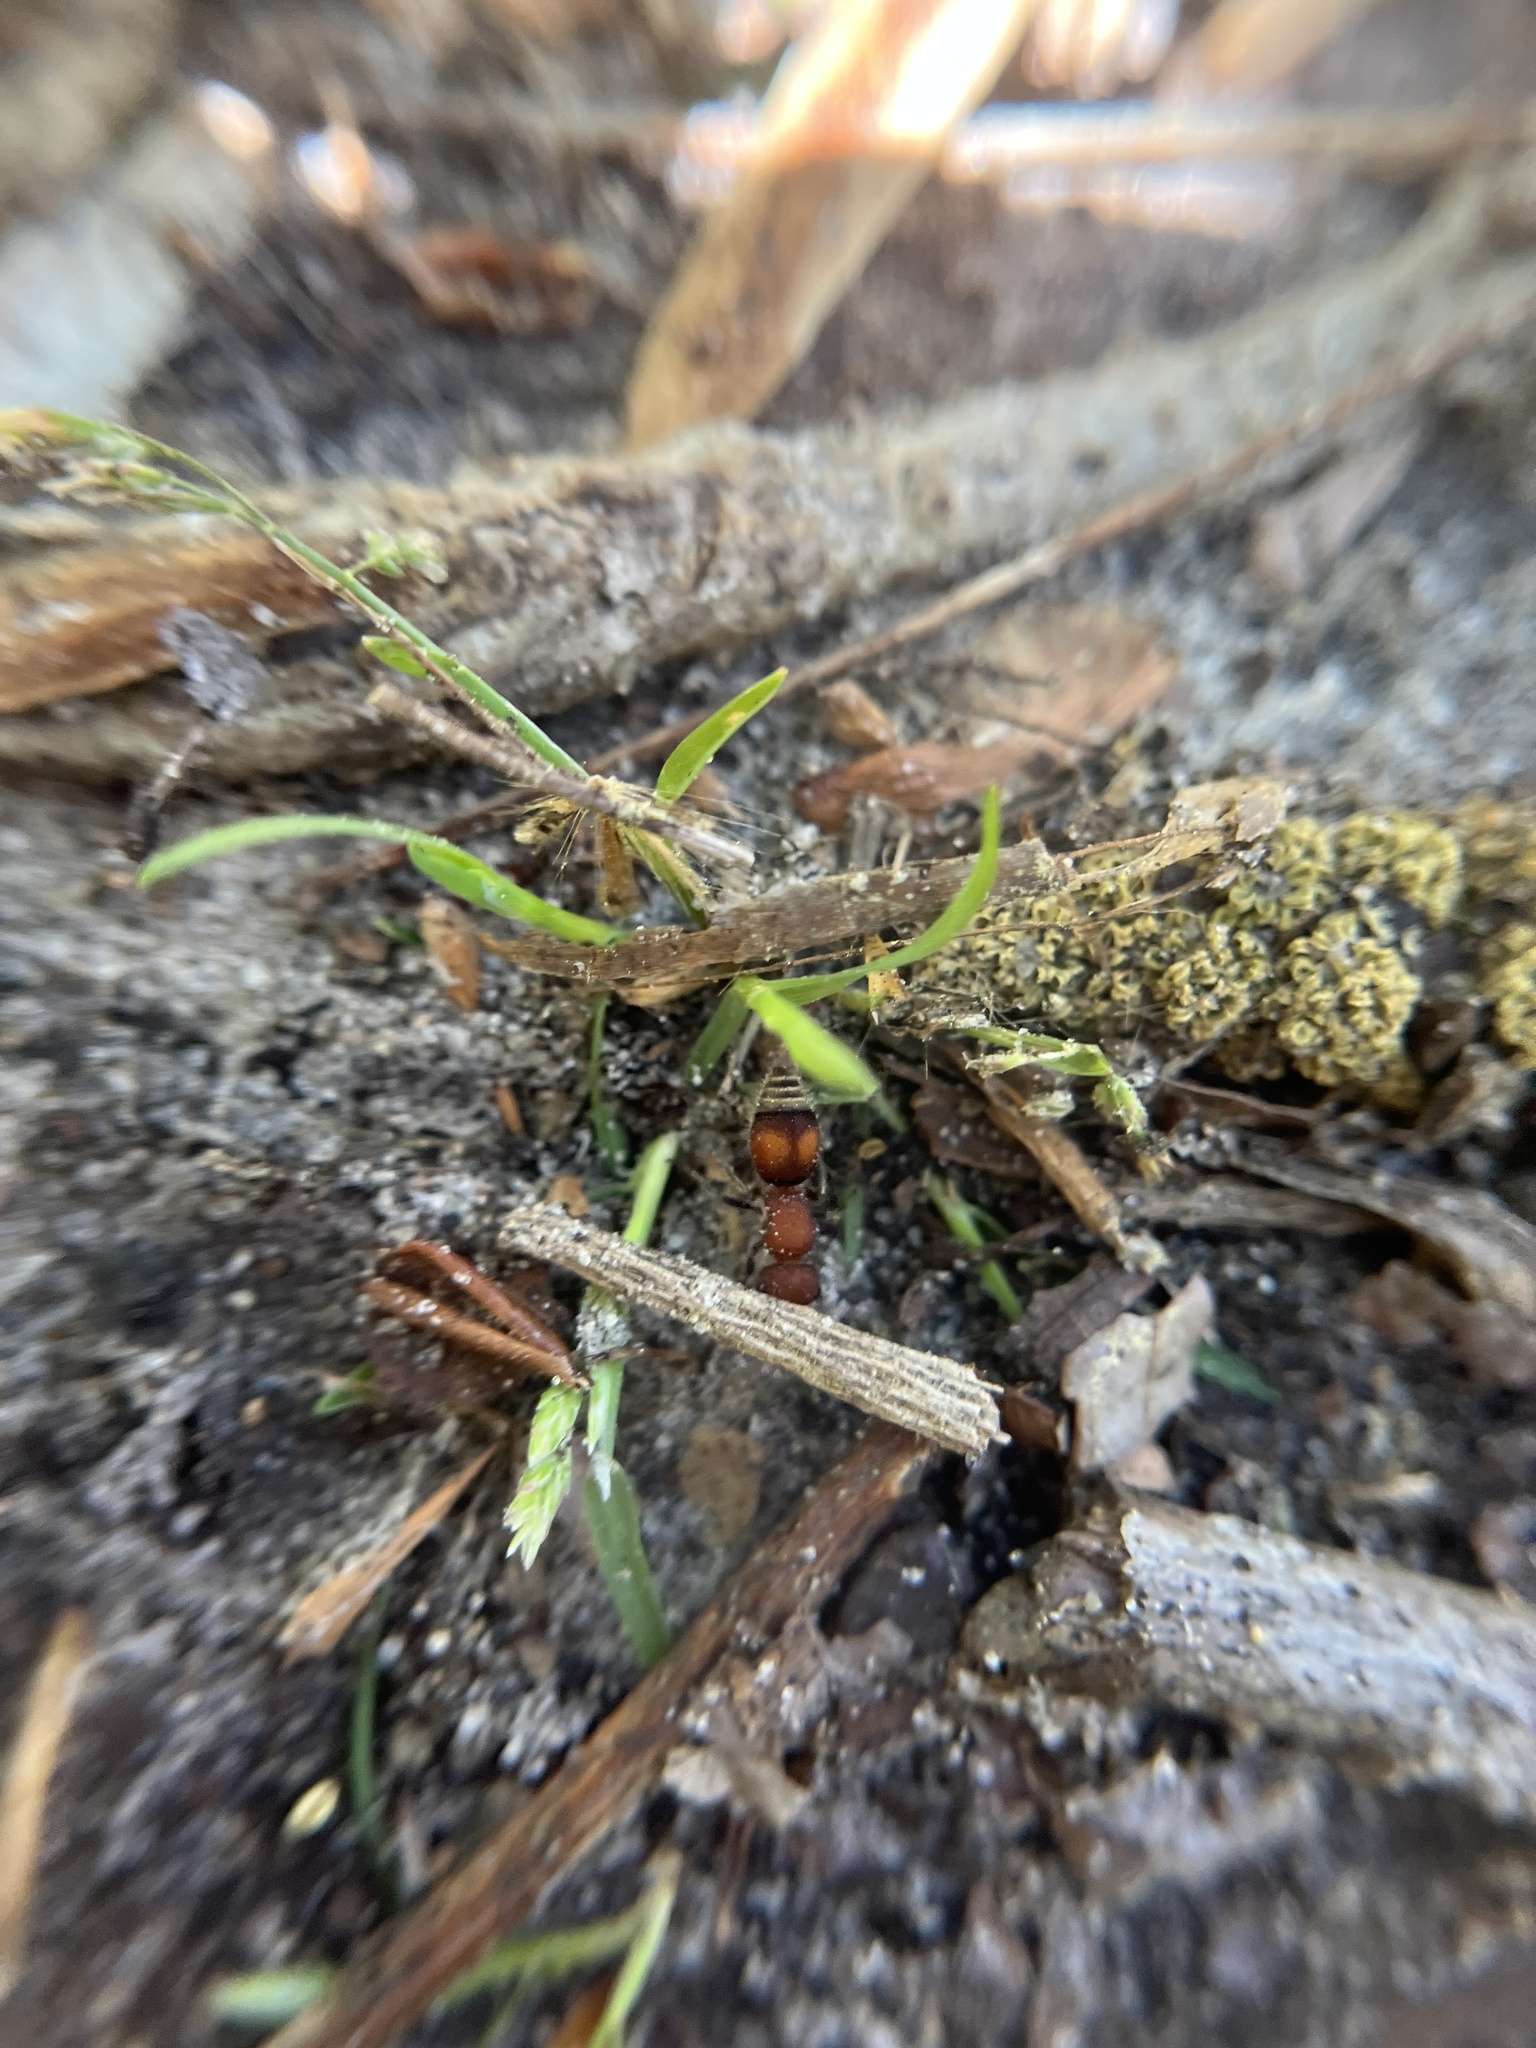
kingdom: Animalia
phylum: Arthropoda
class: Insecta
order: Hymenoptera
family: Mutillidae
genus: Pseudomethoca
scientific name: Pseudomethoca
